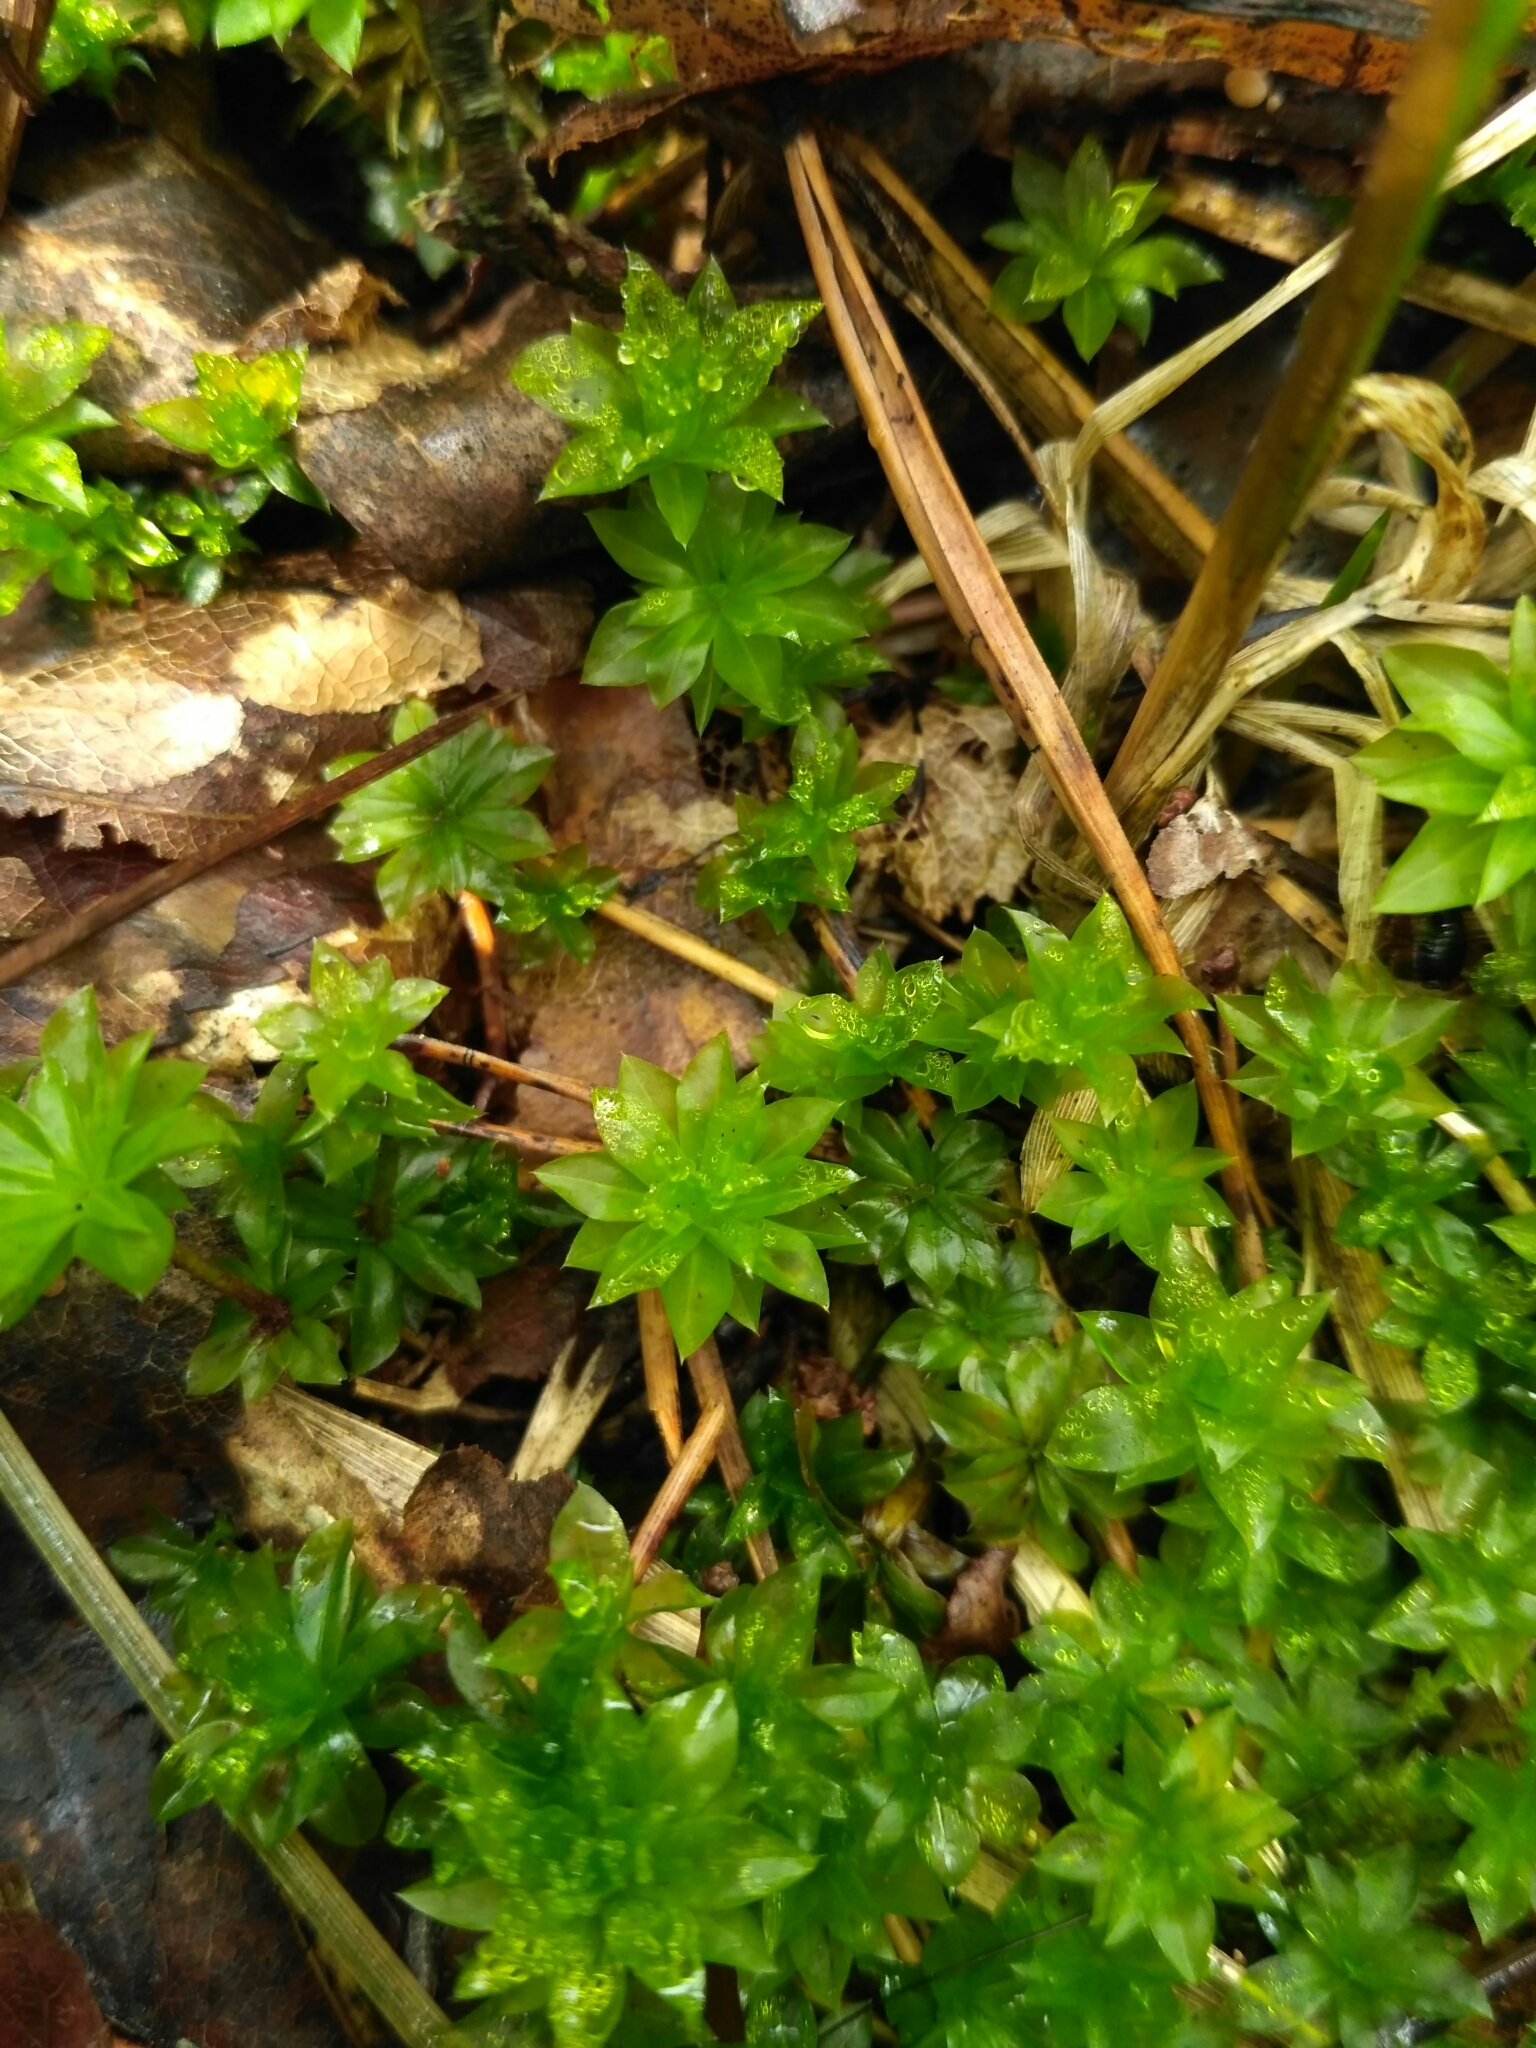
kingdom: Plantae
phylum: Bryophyta
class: Bryopsida
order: Bryales
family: Bryaceae
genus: Rhodobryum
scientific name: Rhodobryum roseum
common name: Rose-moss
